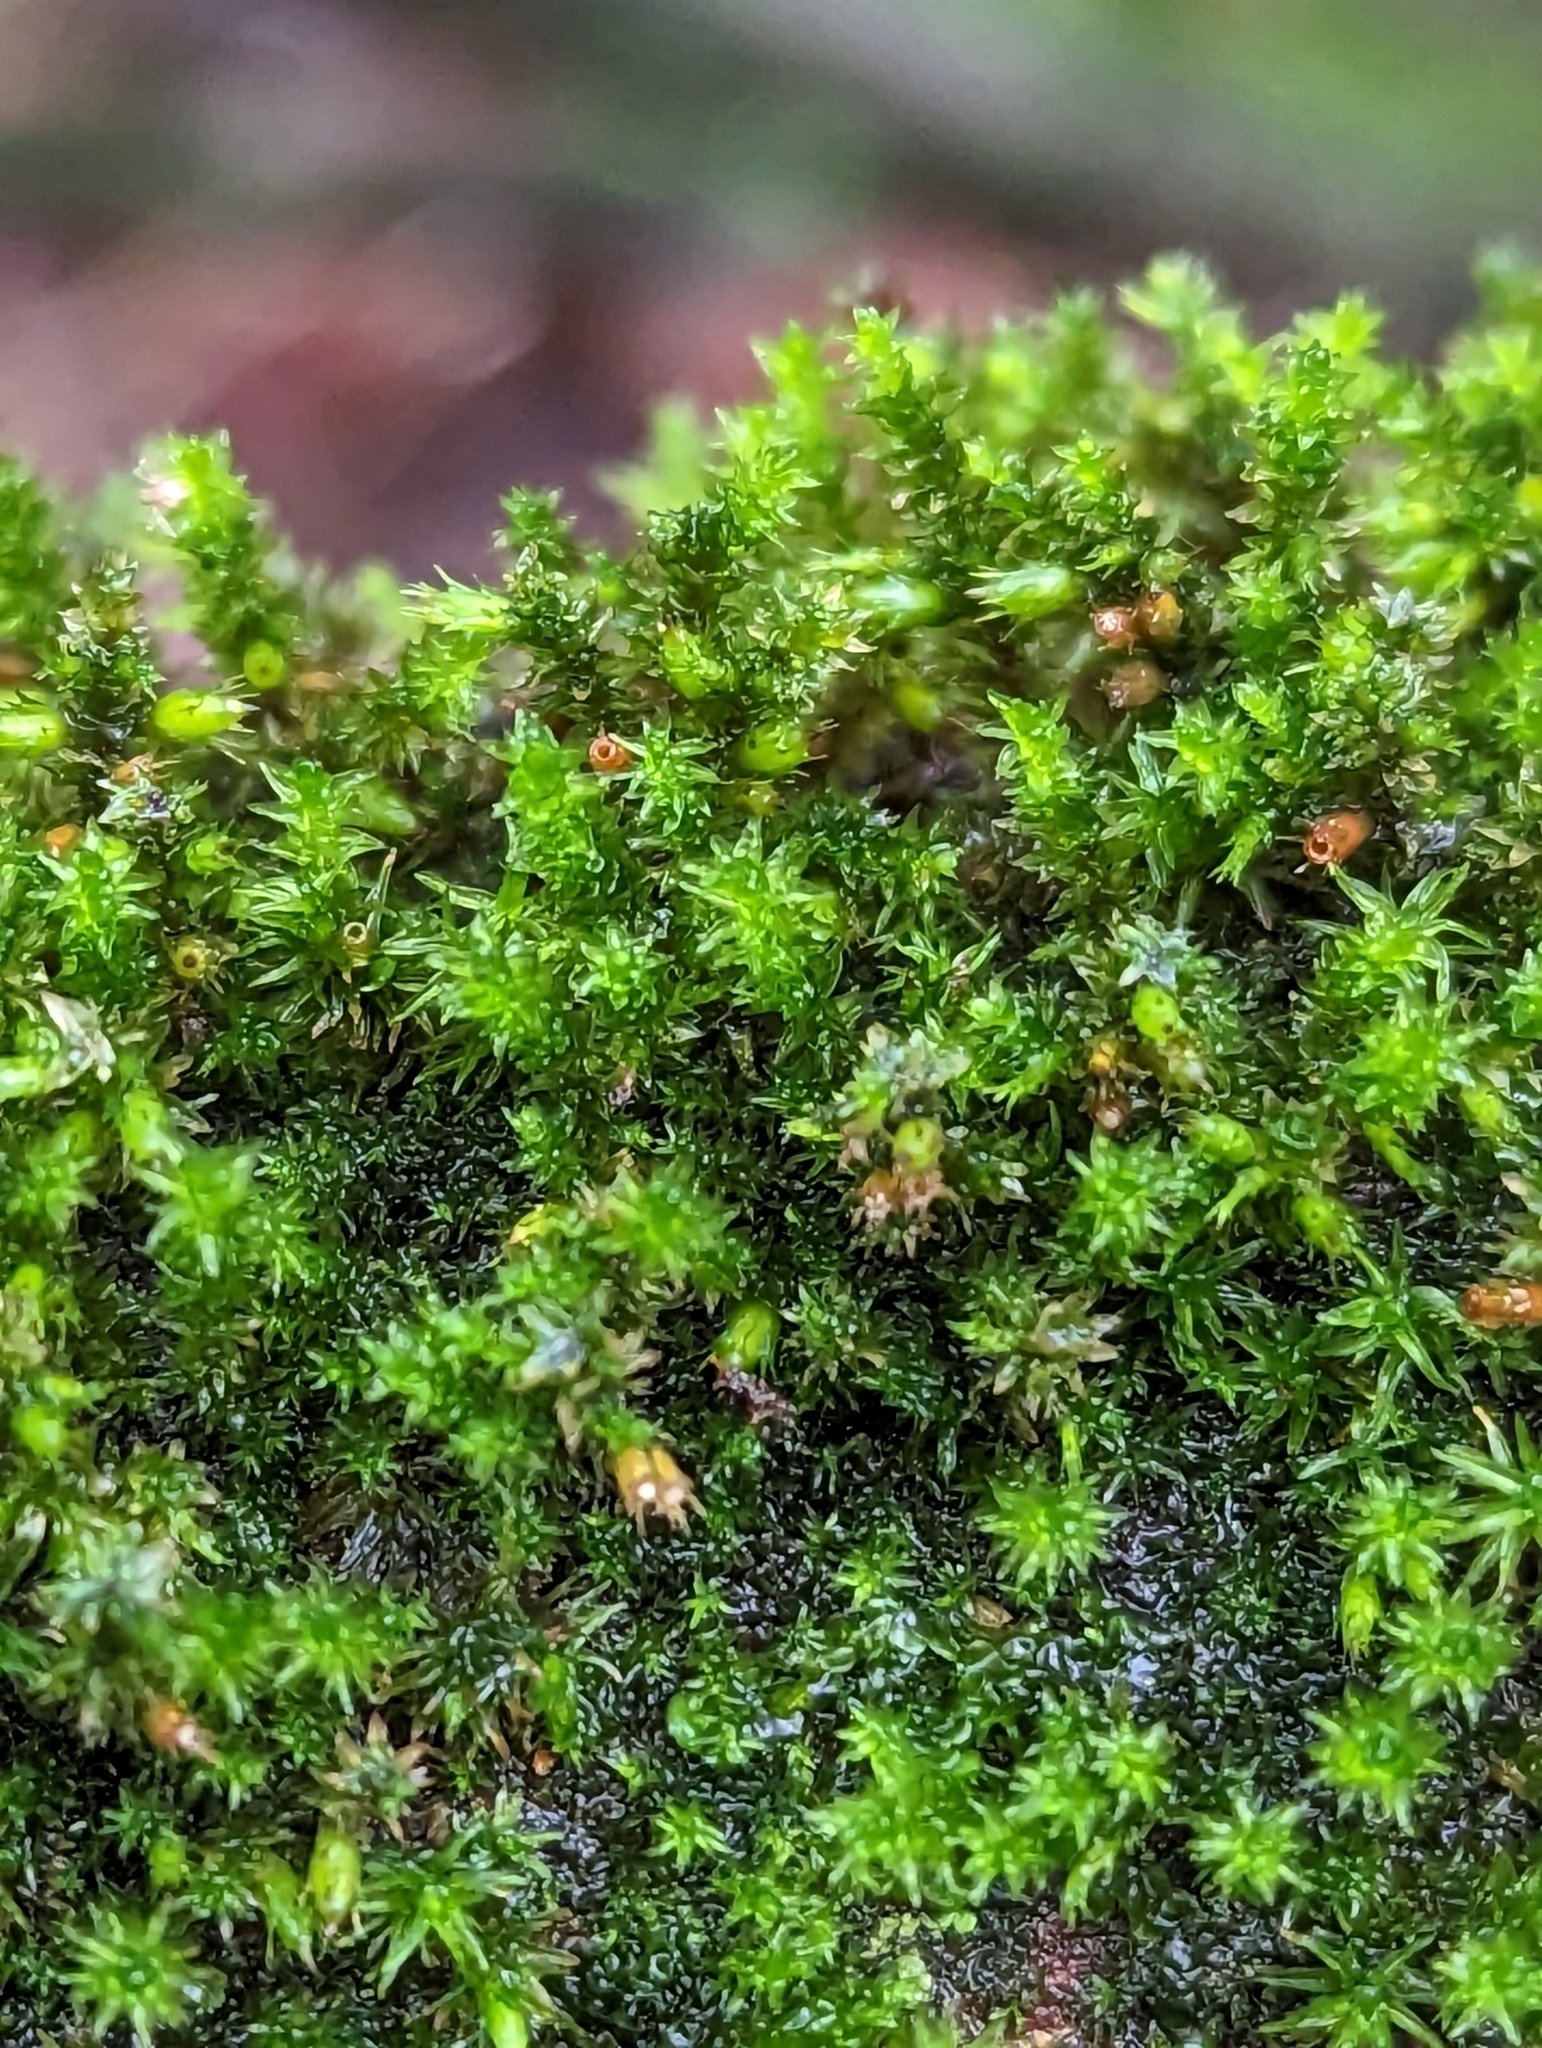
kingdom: Plantae
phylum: Bryophyta
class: Bryopsida
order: Hypnales
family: Cryphaeaceae
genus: Cryphaea
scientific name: Cryphaea heteromalla
